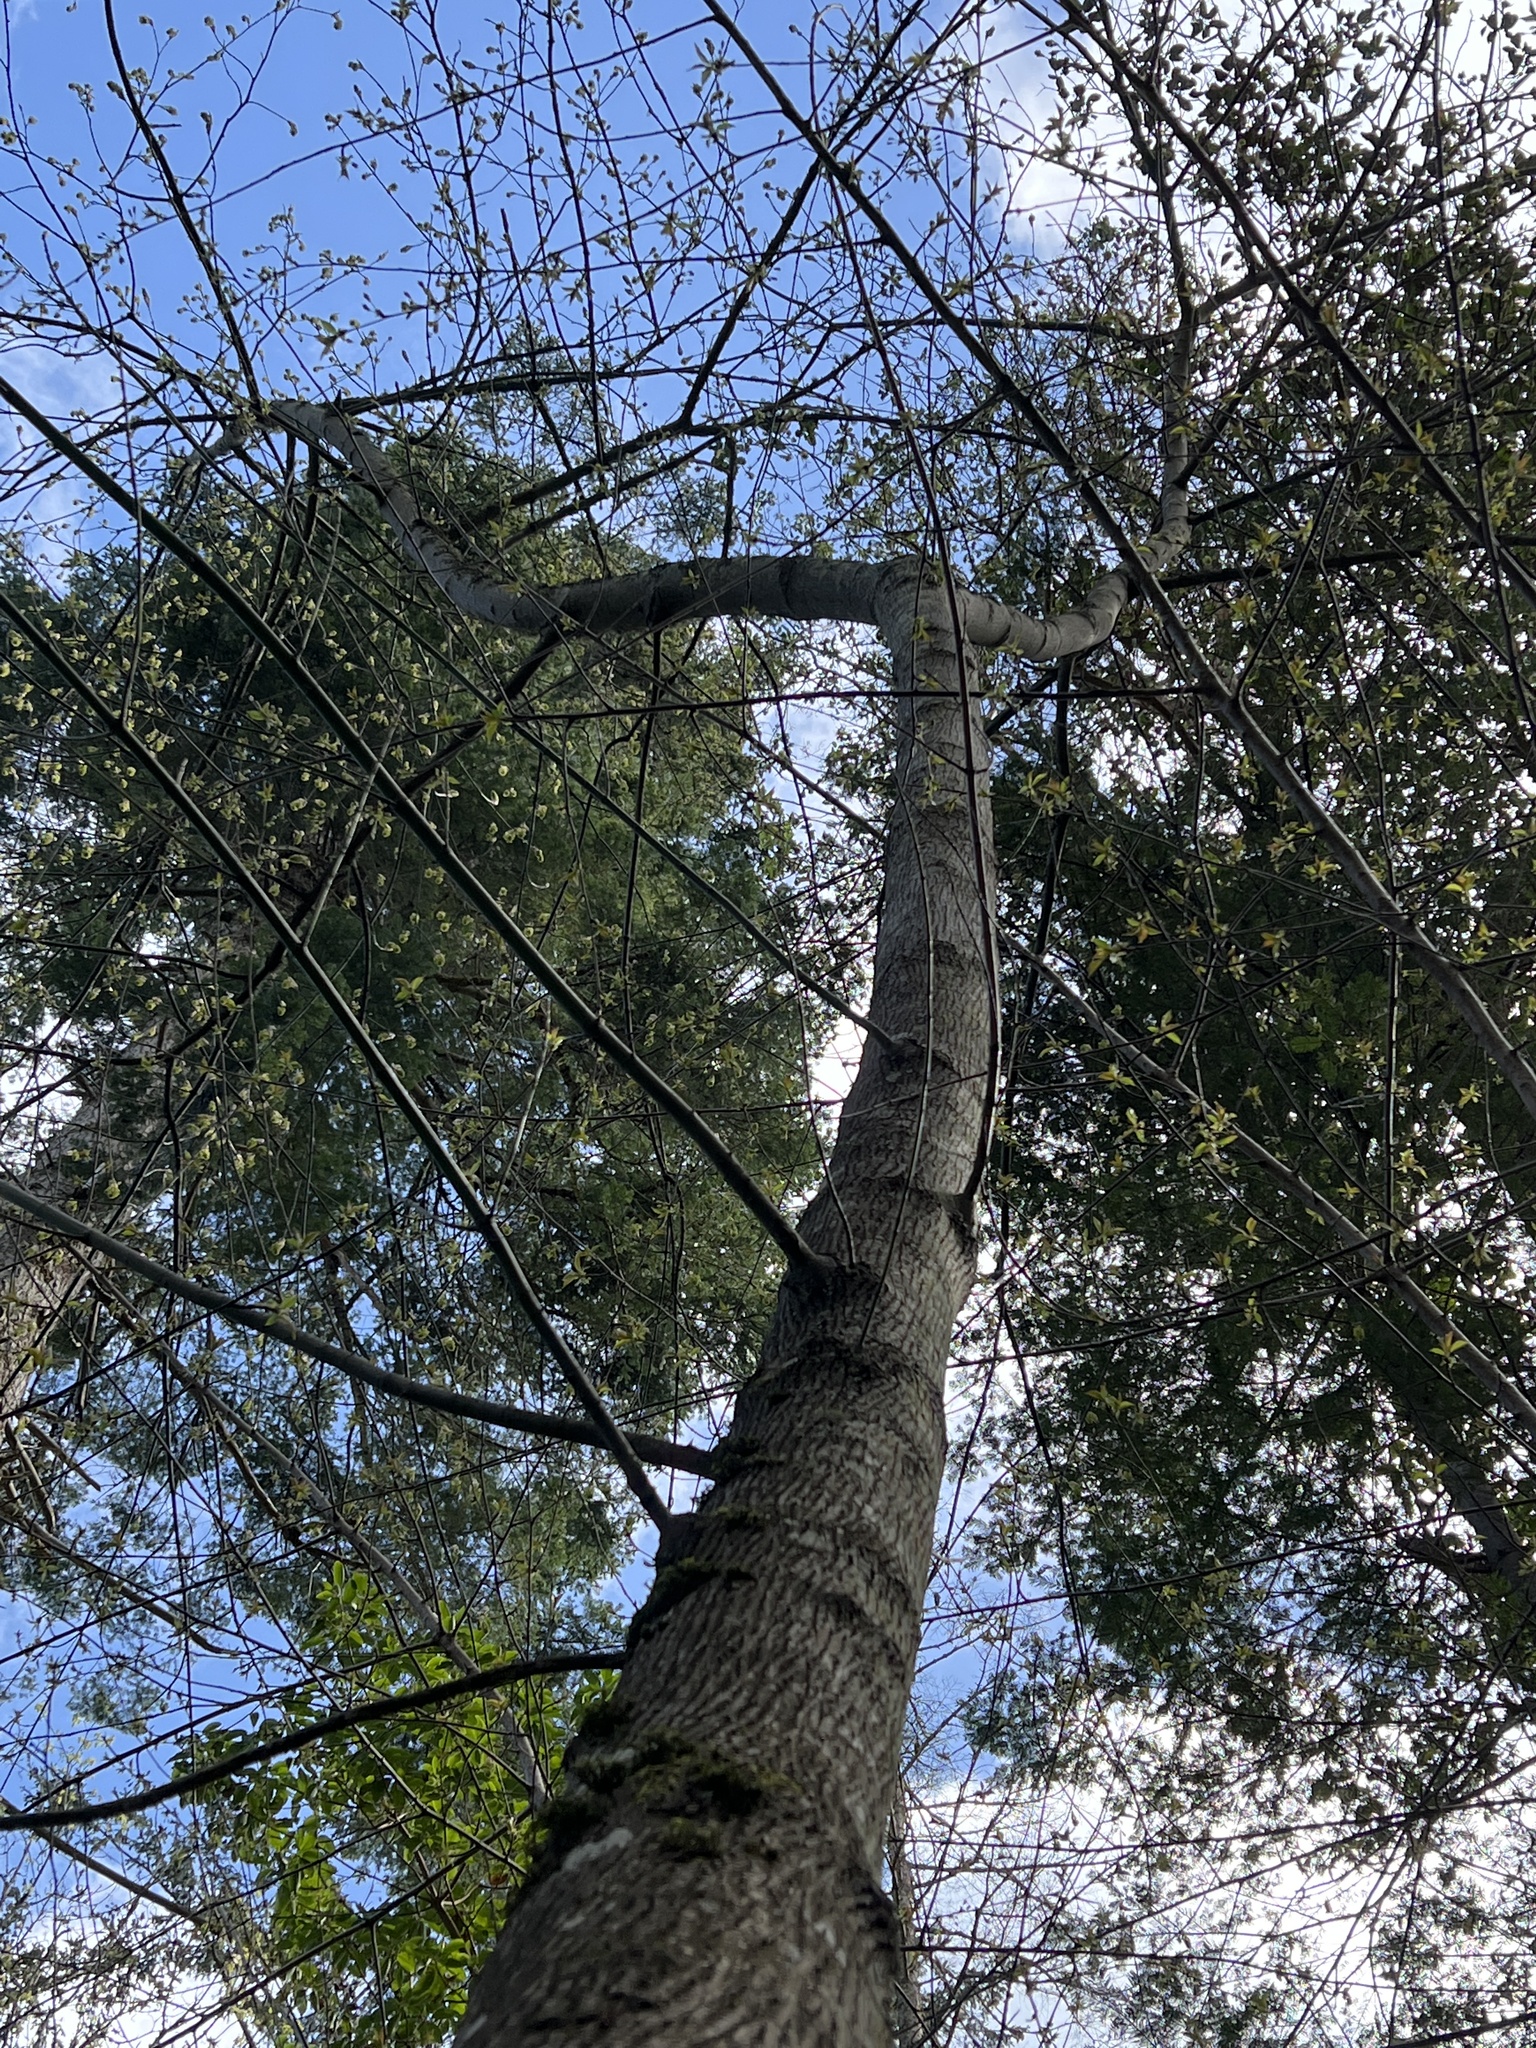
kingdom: Plantae
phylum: Tracheophyta
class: Magnoliopsida
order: Sapindales
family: Sapindaceae
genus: Acer
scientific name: Acer macrophyllum
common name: Oregon maple
